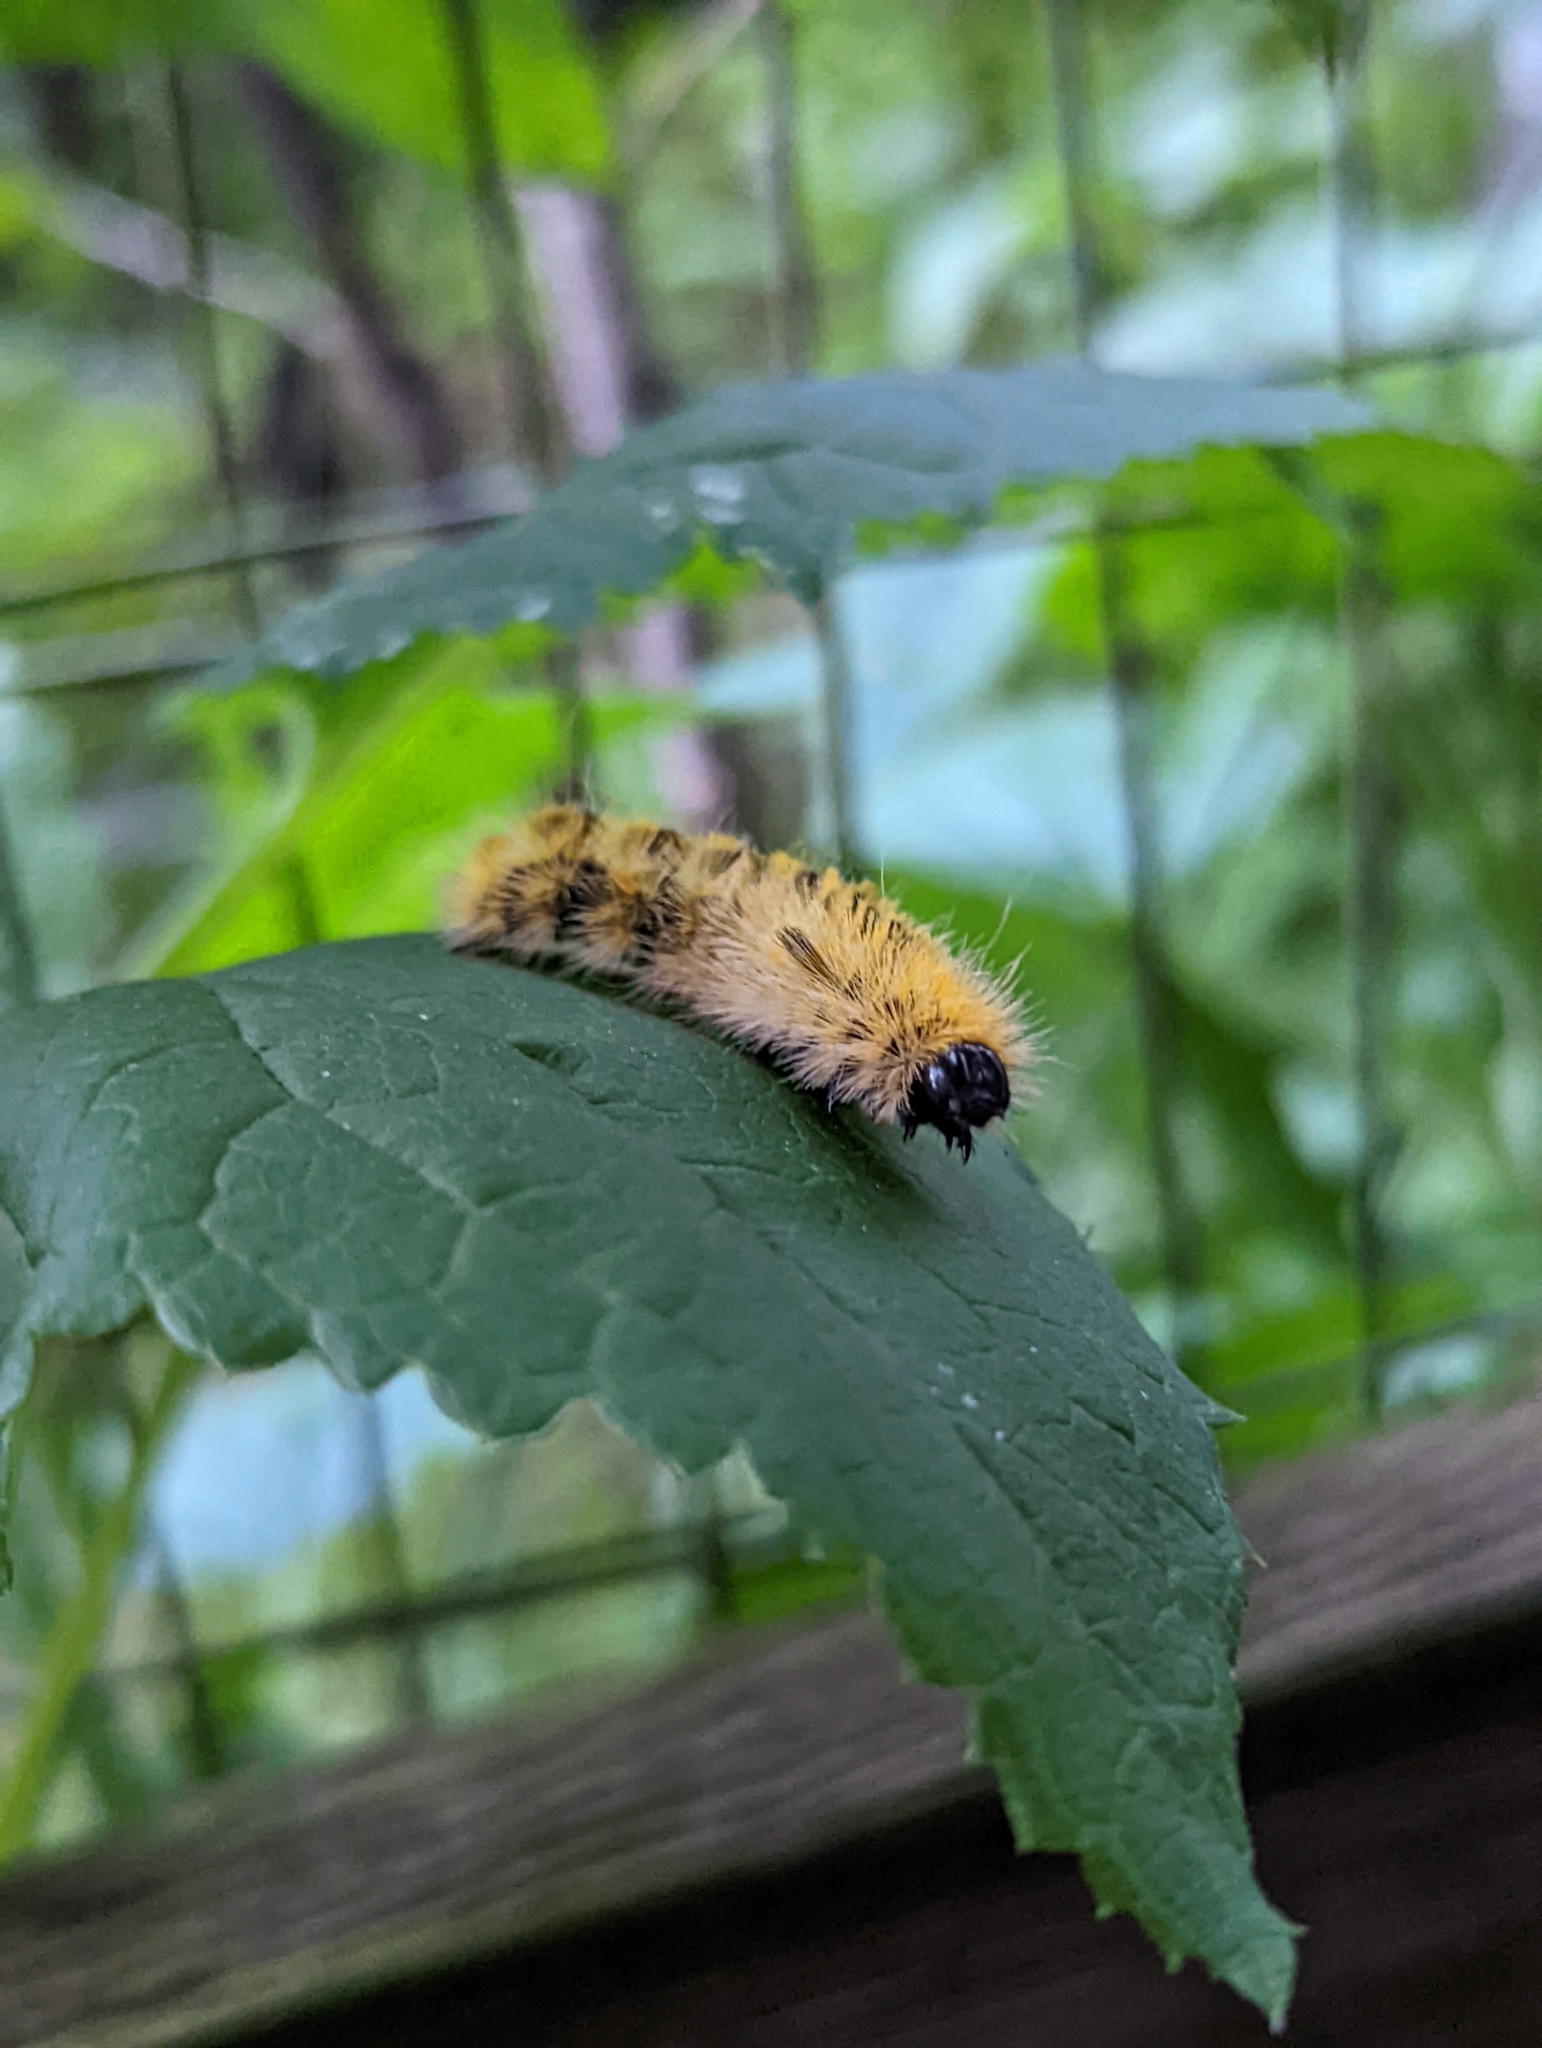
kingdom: Animalia
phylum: Arthropoda
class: Insecta
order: Lepidoptera
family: Erebidae
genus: Lophocampa
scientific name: Lophocampa argentata
